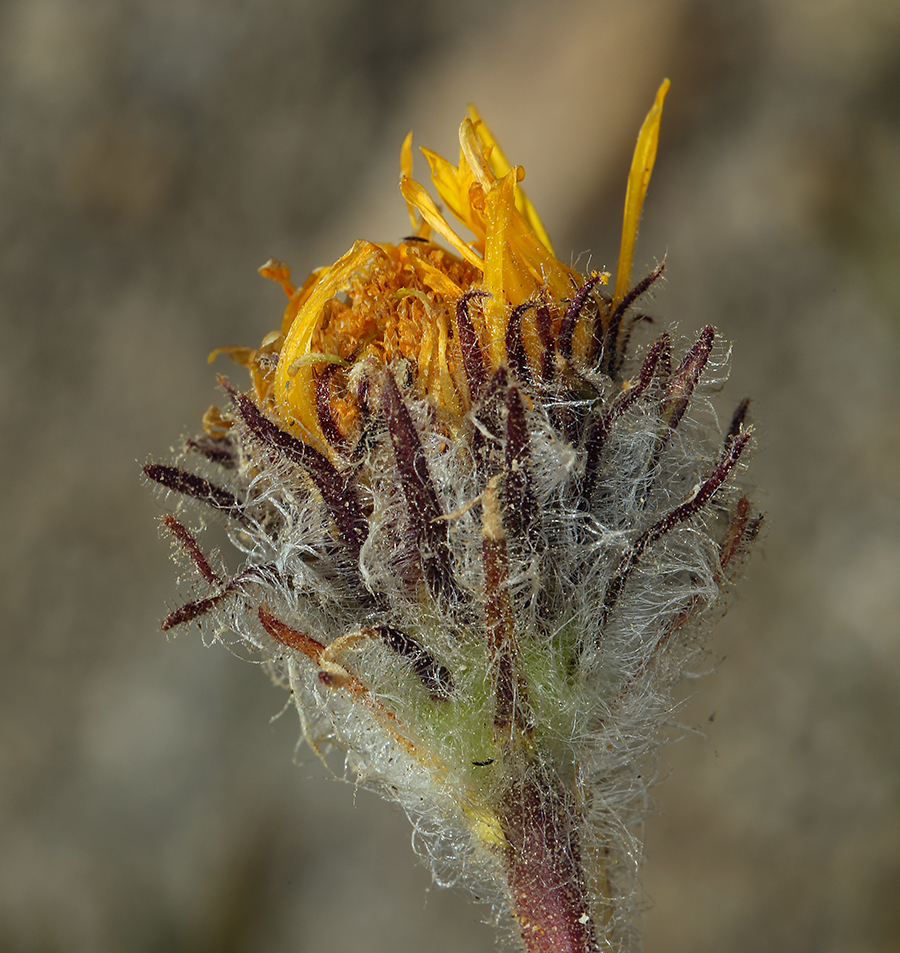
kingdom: Plantae
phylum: Tracheophyta
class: Magnoliopsida
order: Asterales
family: Asteraceae
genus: Hulsea
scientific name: Hulsea algida
